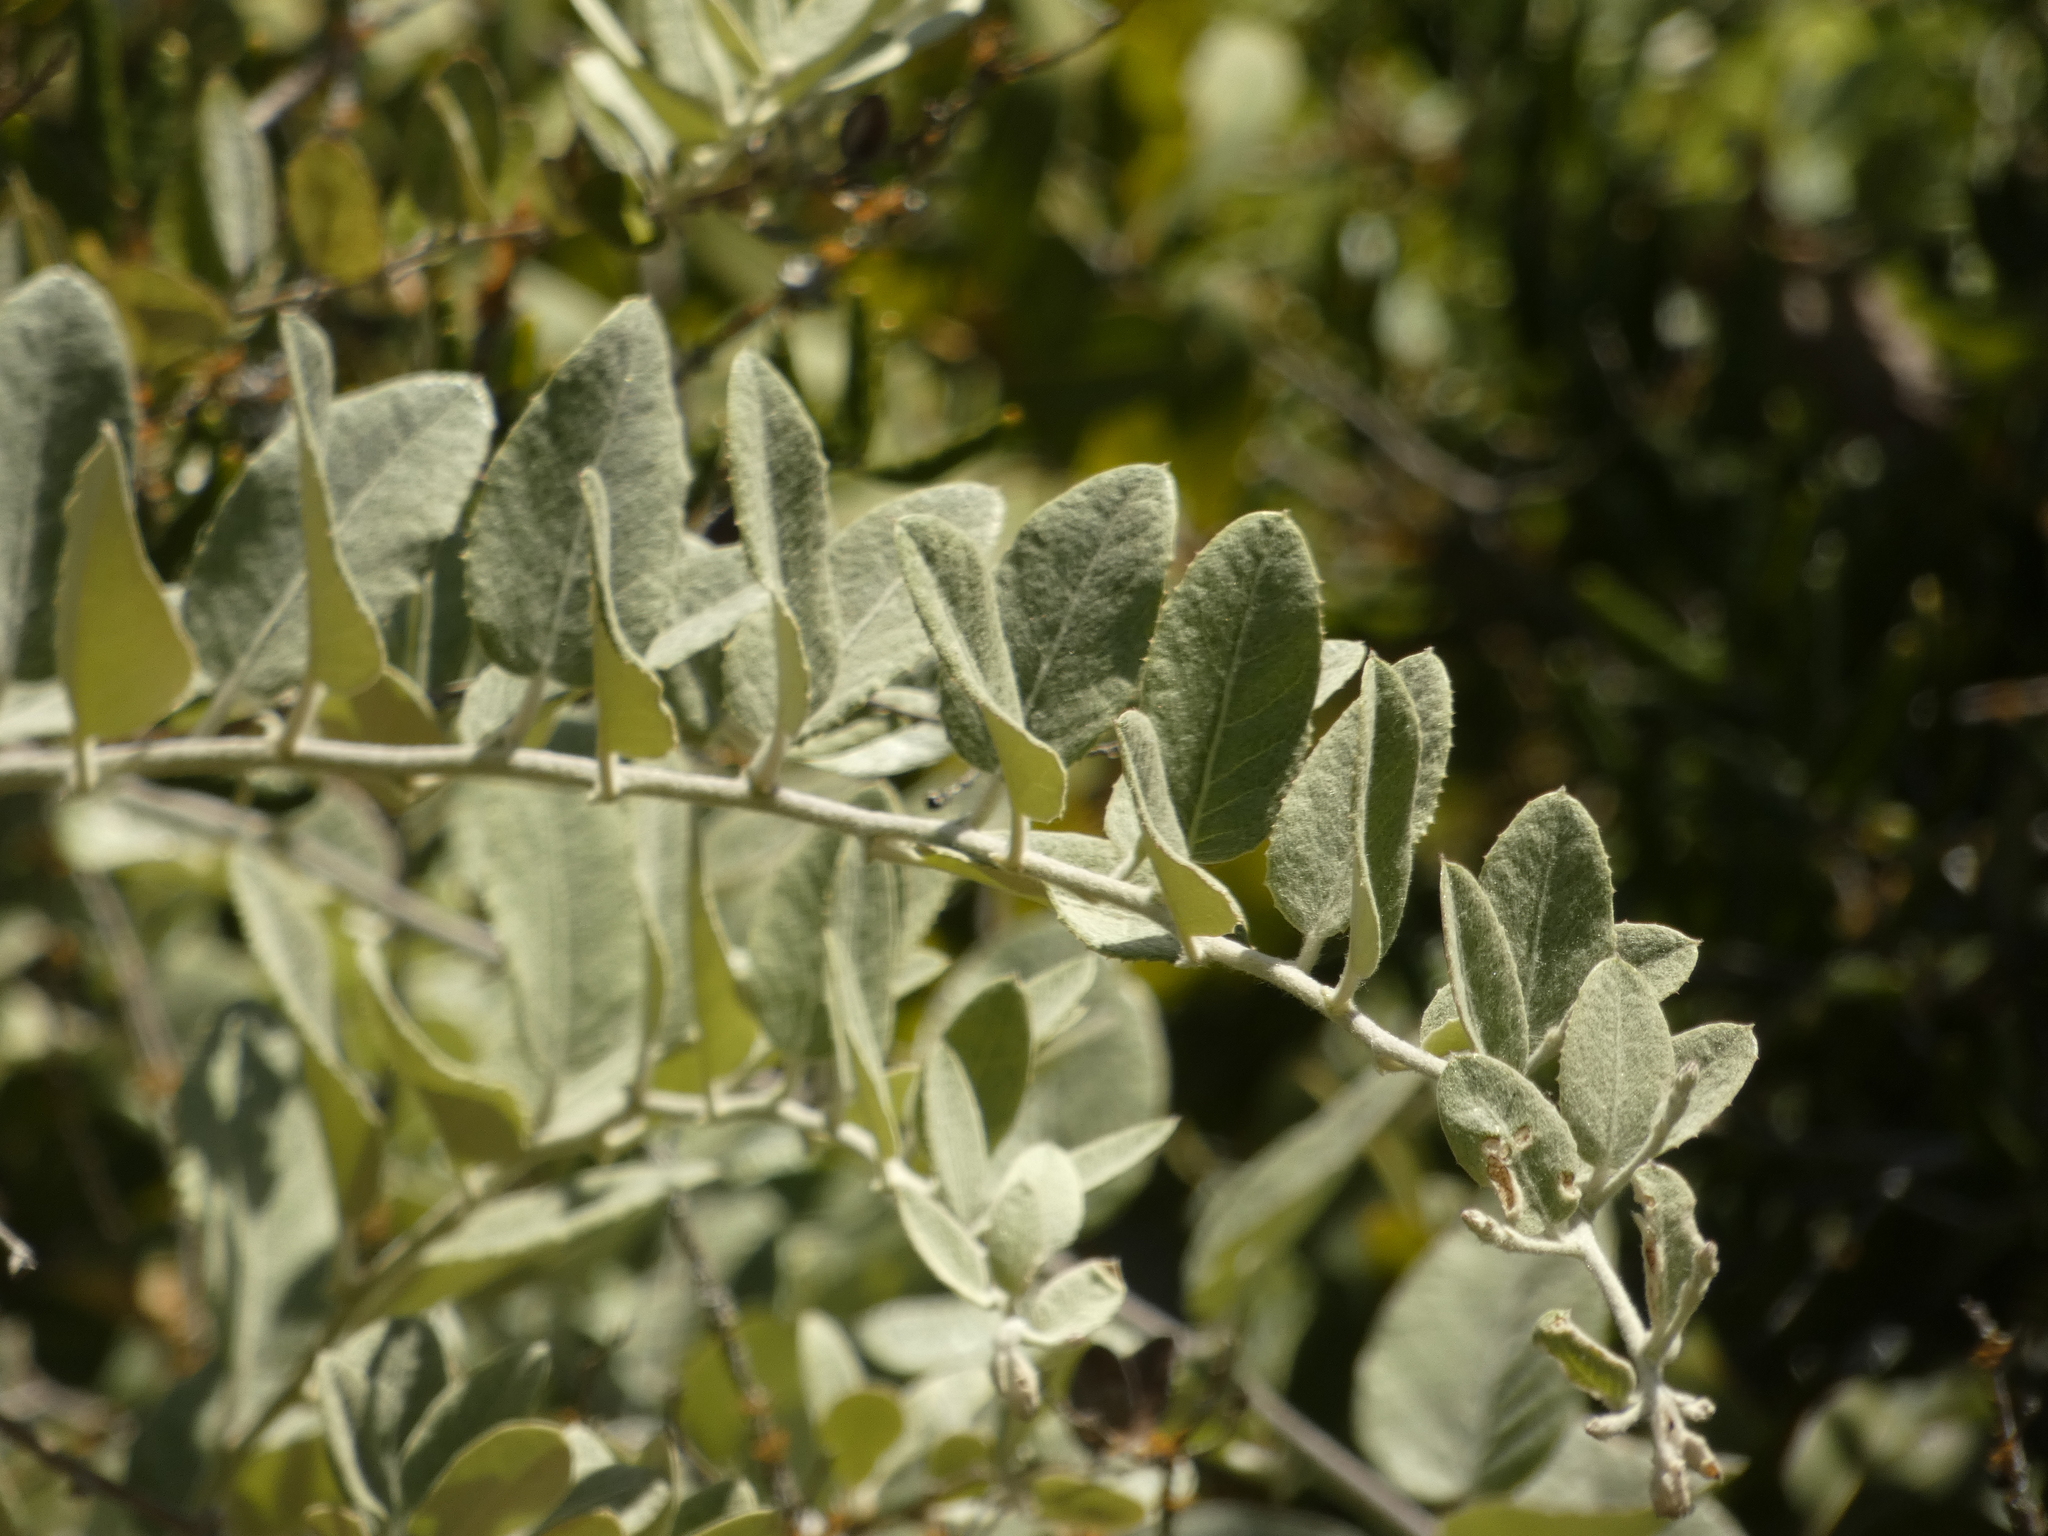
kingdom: Plantae
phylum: Tracheophyta
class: Magnoliopsida
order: Asterales
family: Asteraceae
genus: Proustia
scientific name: Proustia pyrifolia
